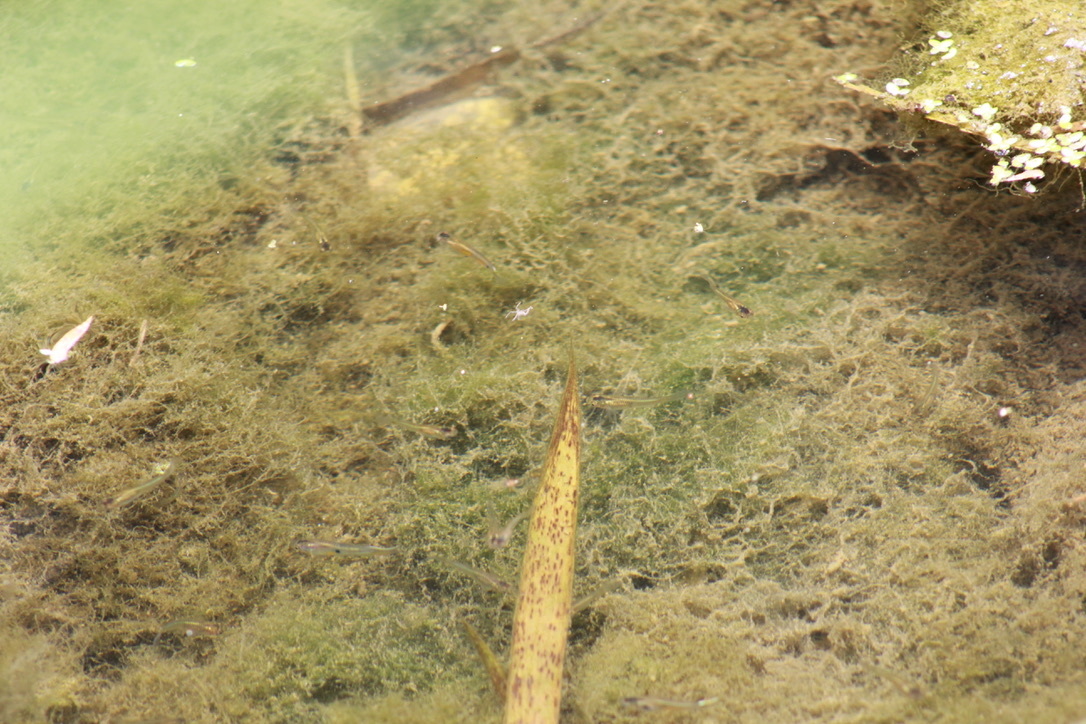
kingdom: Animalia
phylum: Chordata
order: Cyprinodontiformes
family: Poeciliidae
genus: Poecilia
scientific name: Poecilia reticulata
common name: Guppy
